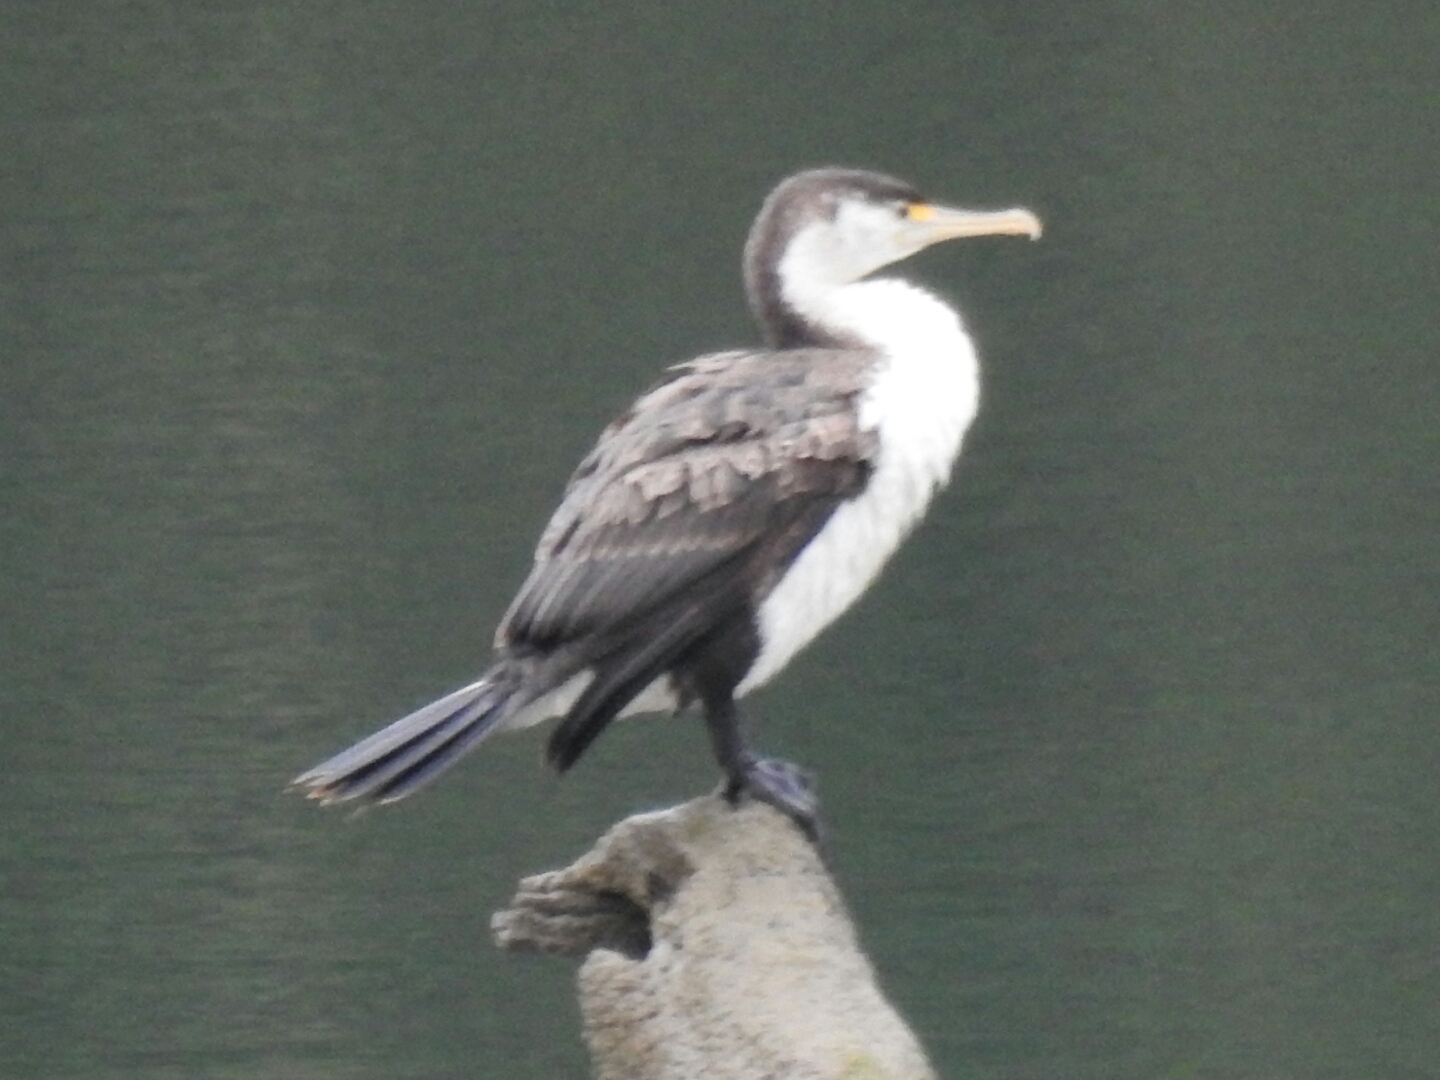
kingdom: Animalia
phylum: Chordata
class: Aves
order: Suliformes
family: Phalacrocoracidae
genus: Phalacrocorax
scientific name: Phalacrocorax varius
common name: Pied cormorant
